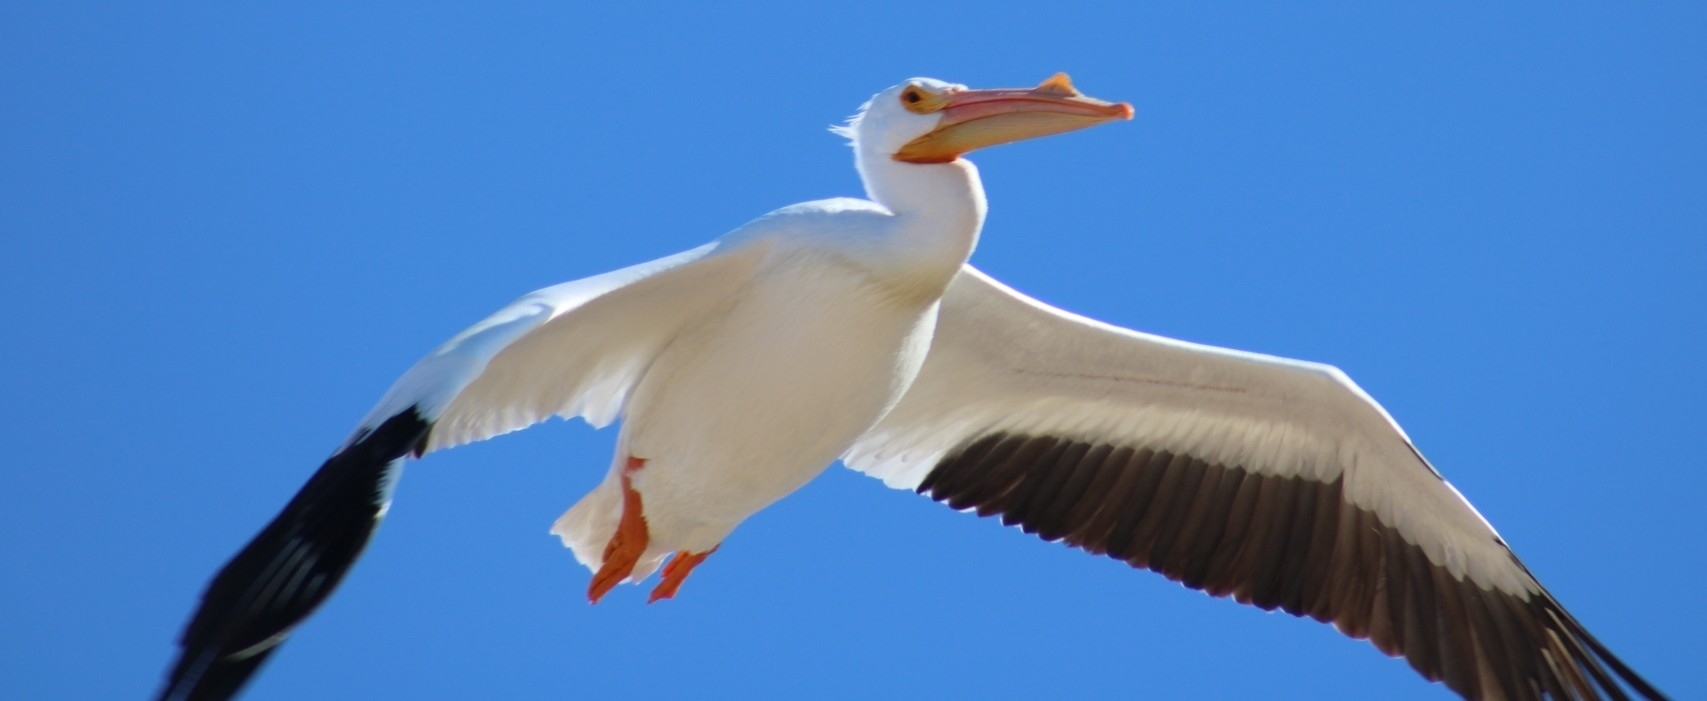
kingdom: Animalia
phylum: Chordata
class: Aves
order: Pelecaniformes
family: Pelecanidae
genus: Pelecanus
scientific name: Pelecanus erythrorhynchos
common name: American white pelican
